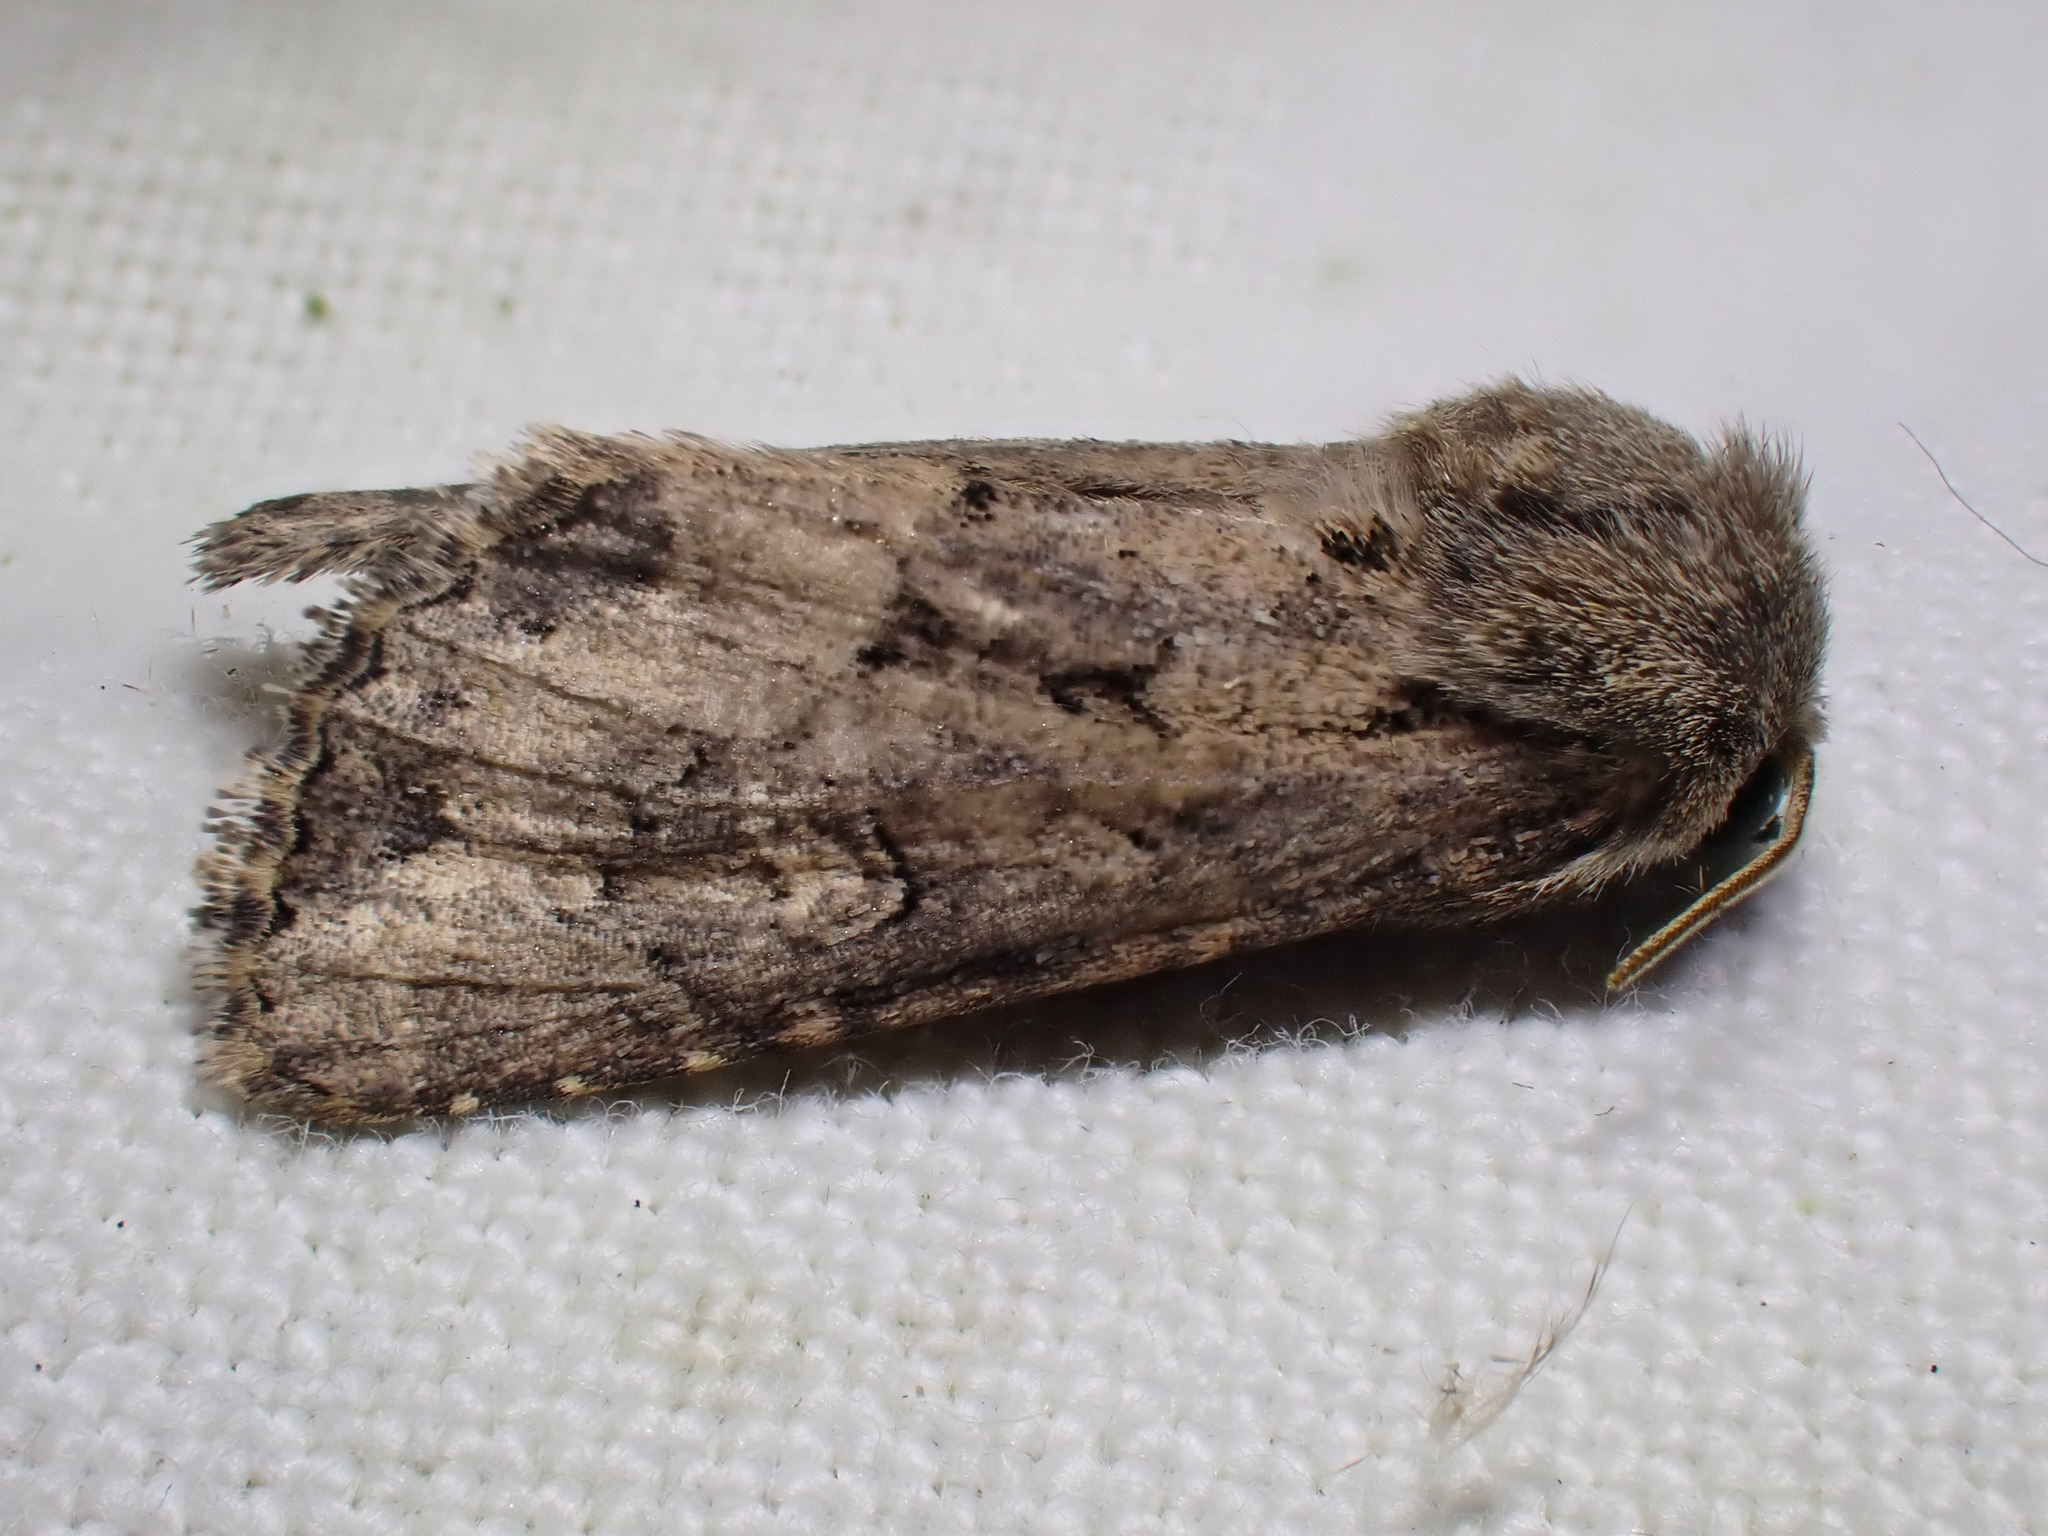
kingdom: Animalia
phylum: Arthropoda
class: Insecta
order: Lepidoptera
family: Noctuidae
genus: Luperina
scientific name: Luperina testacea
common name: Flounced rustic
